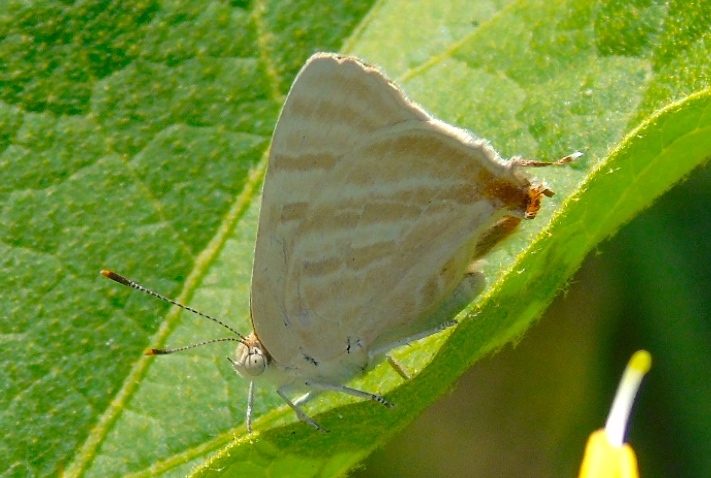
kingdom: Animalia
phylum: Arthropoda
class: Insecta
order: Lepidoptera
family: Lycaenidae
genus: Dolymorpha
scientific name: Dolymorpha jada
